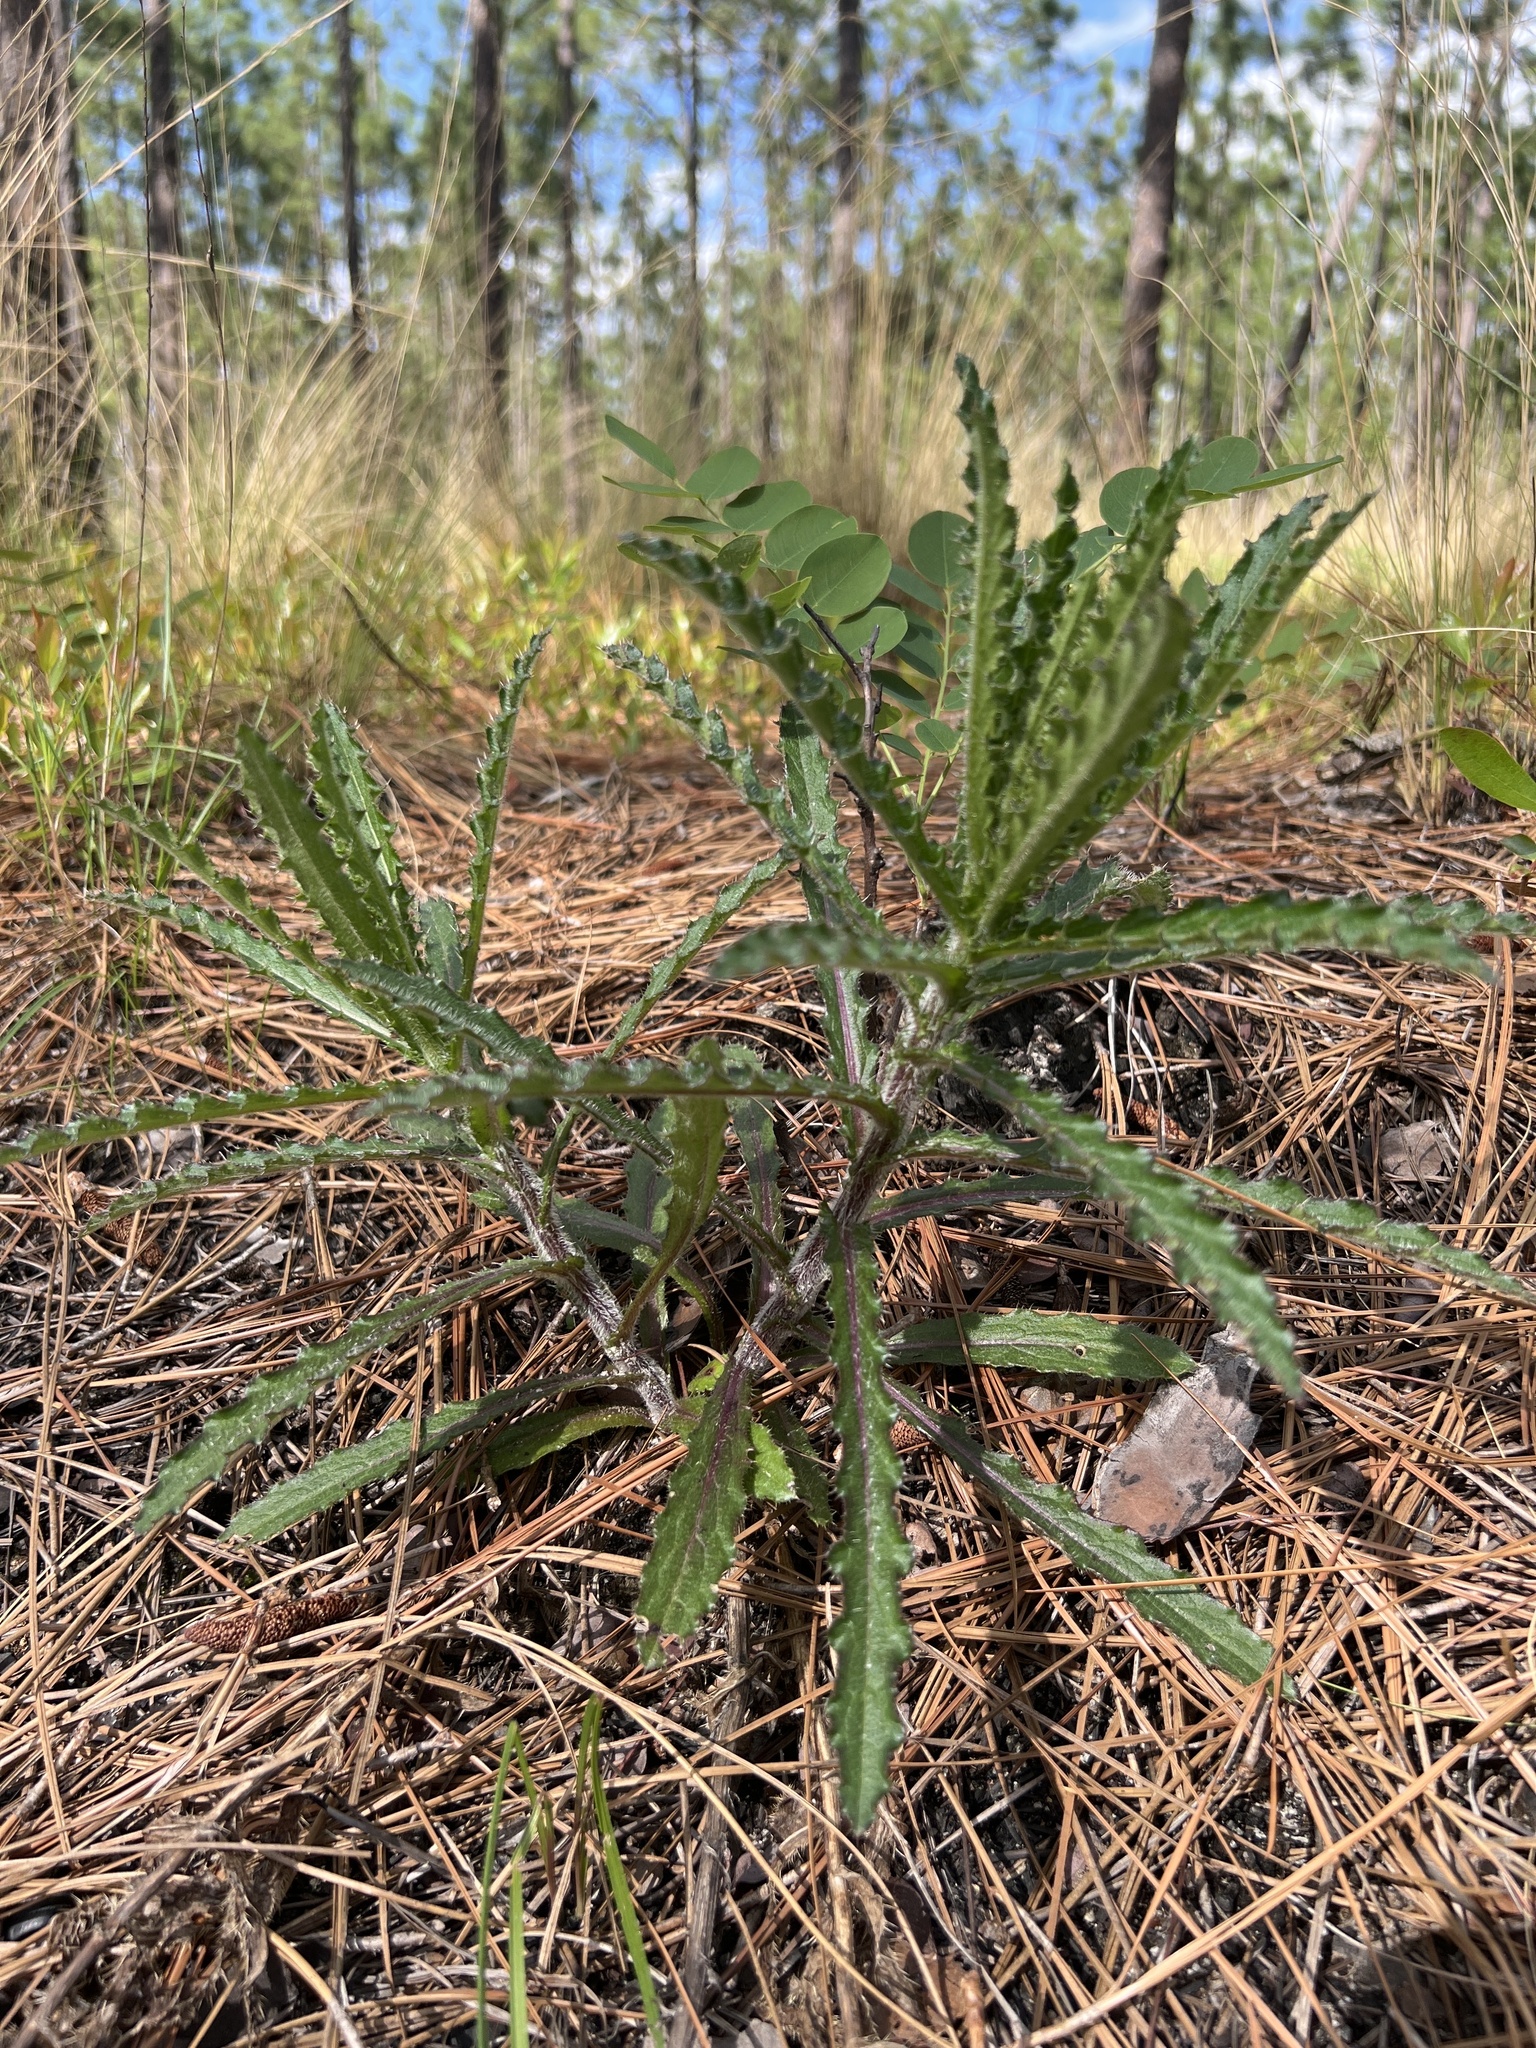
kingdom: Plantae
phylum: Tracheophyta
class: Magnoliopsida
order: Asterales
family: Asteraceae
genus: Cirsium
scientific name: Cirsium repandum
